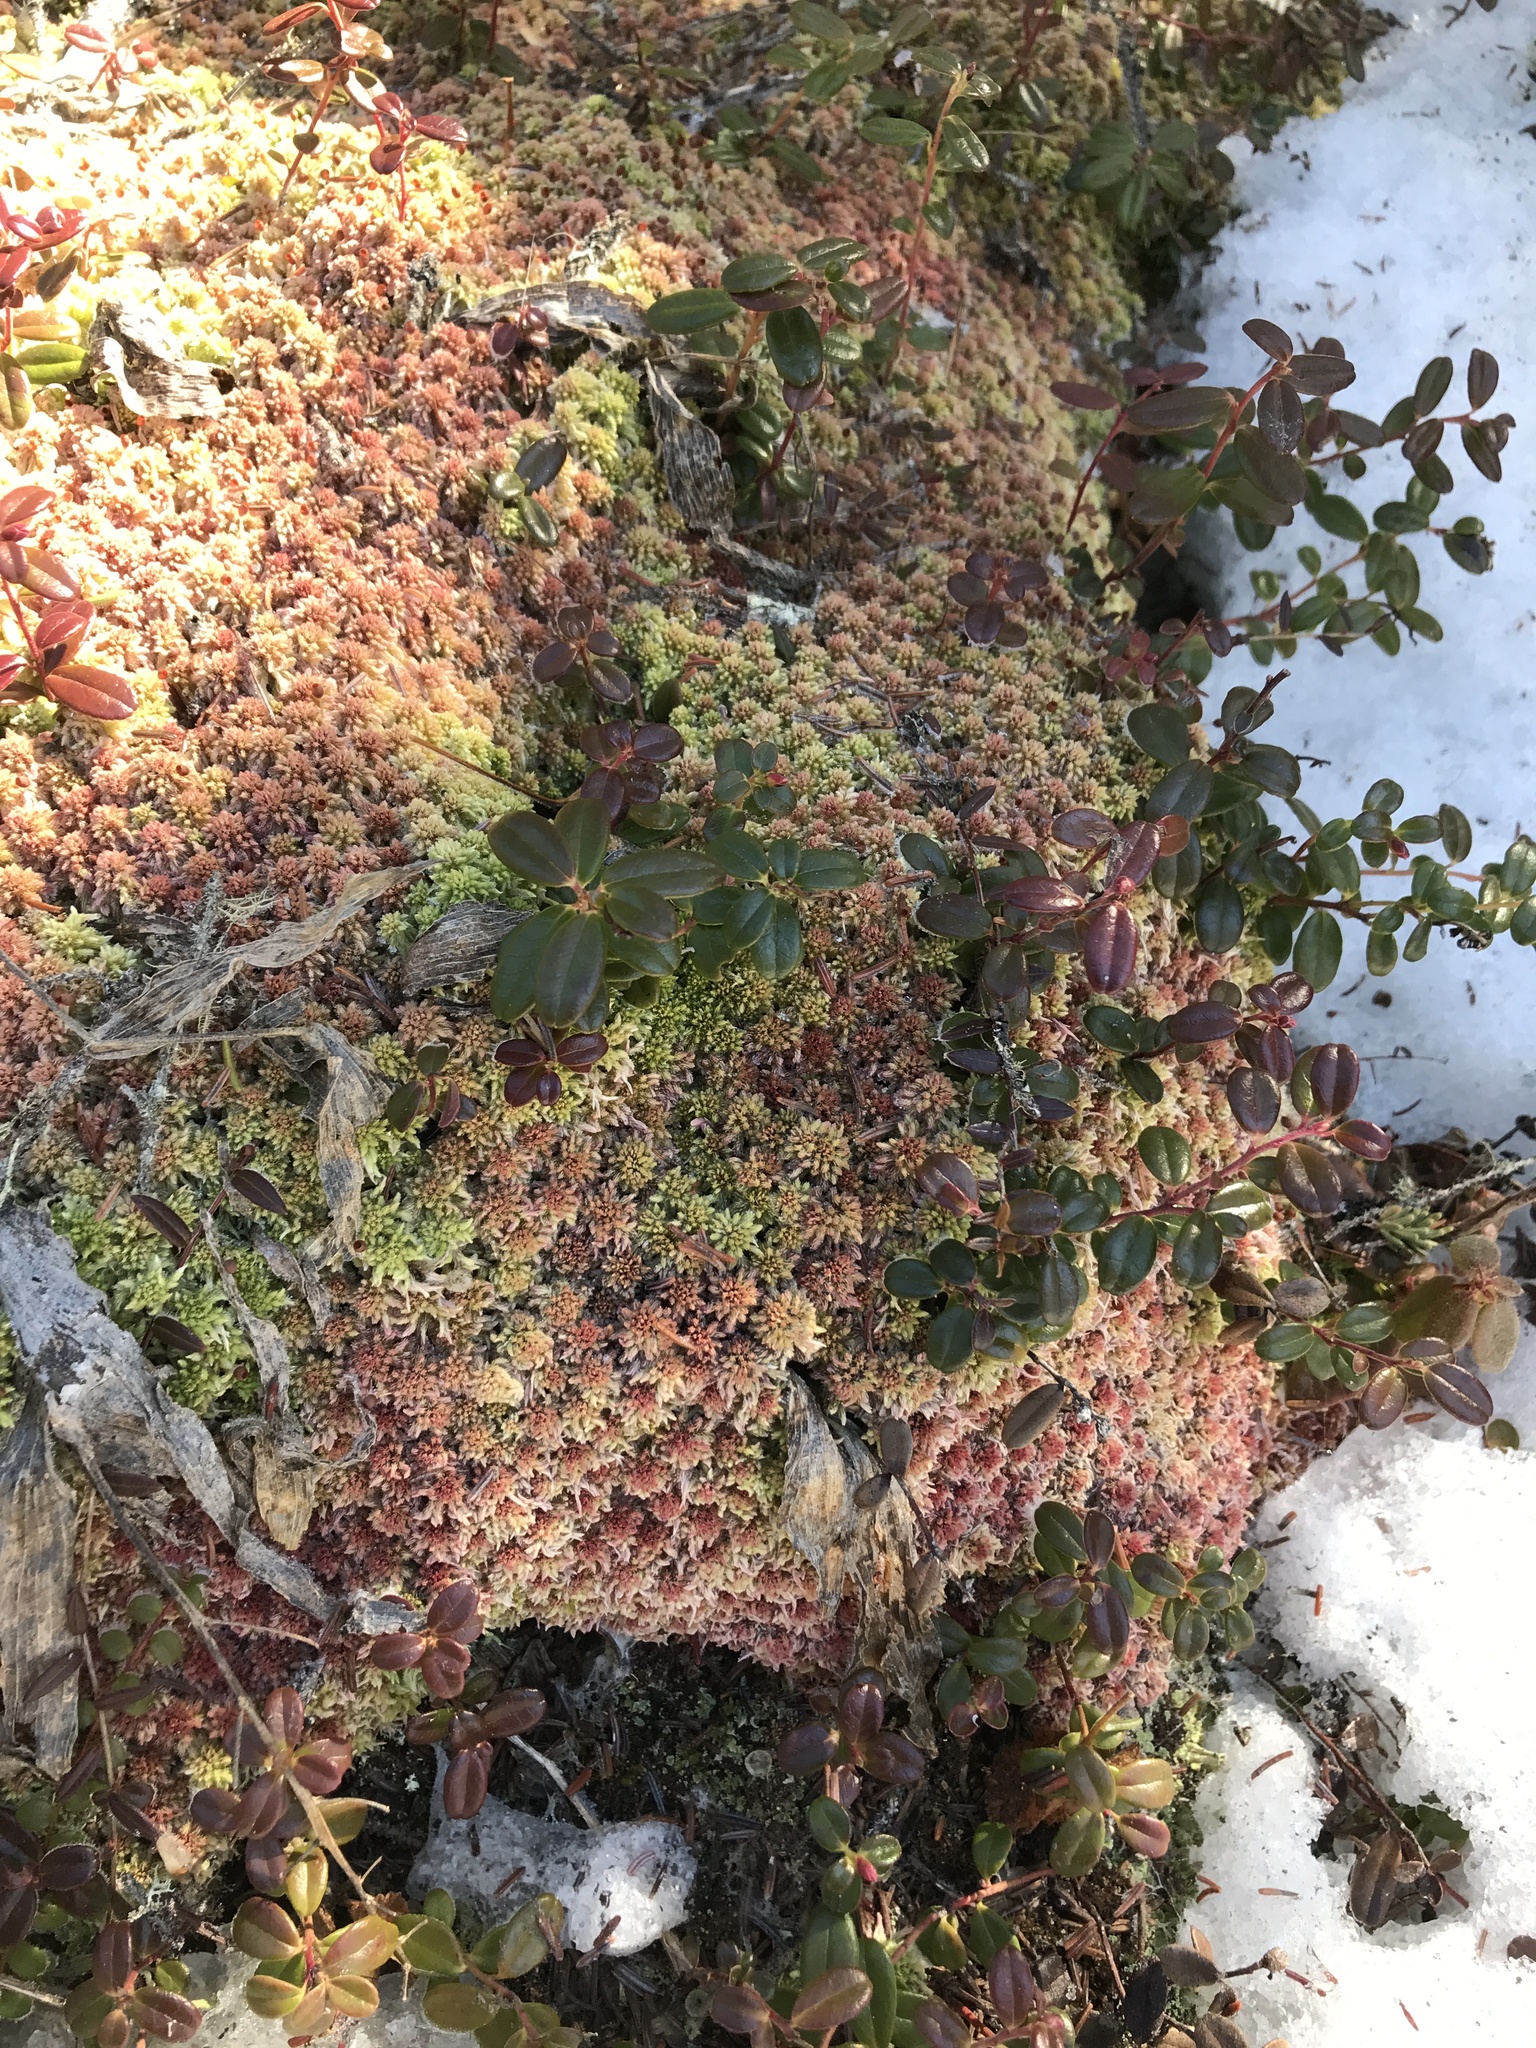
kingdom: Plantae
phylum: Bryophyta
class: Sphagnopsida
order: Sphagnales
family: Sphagnaceae
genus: Sphagnum
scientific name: Sphagnum capillifolium
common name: Small red peat moss
